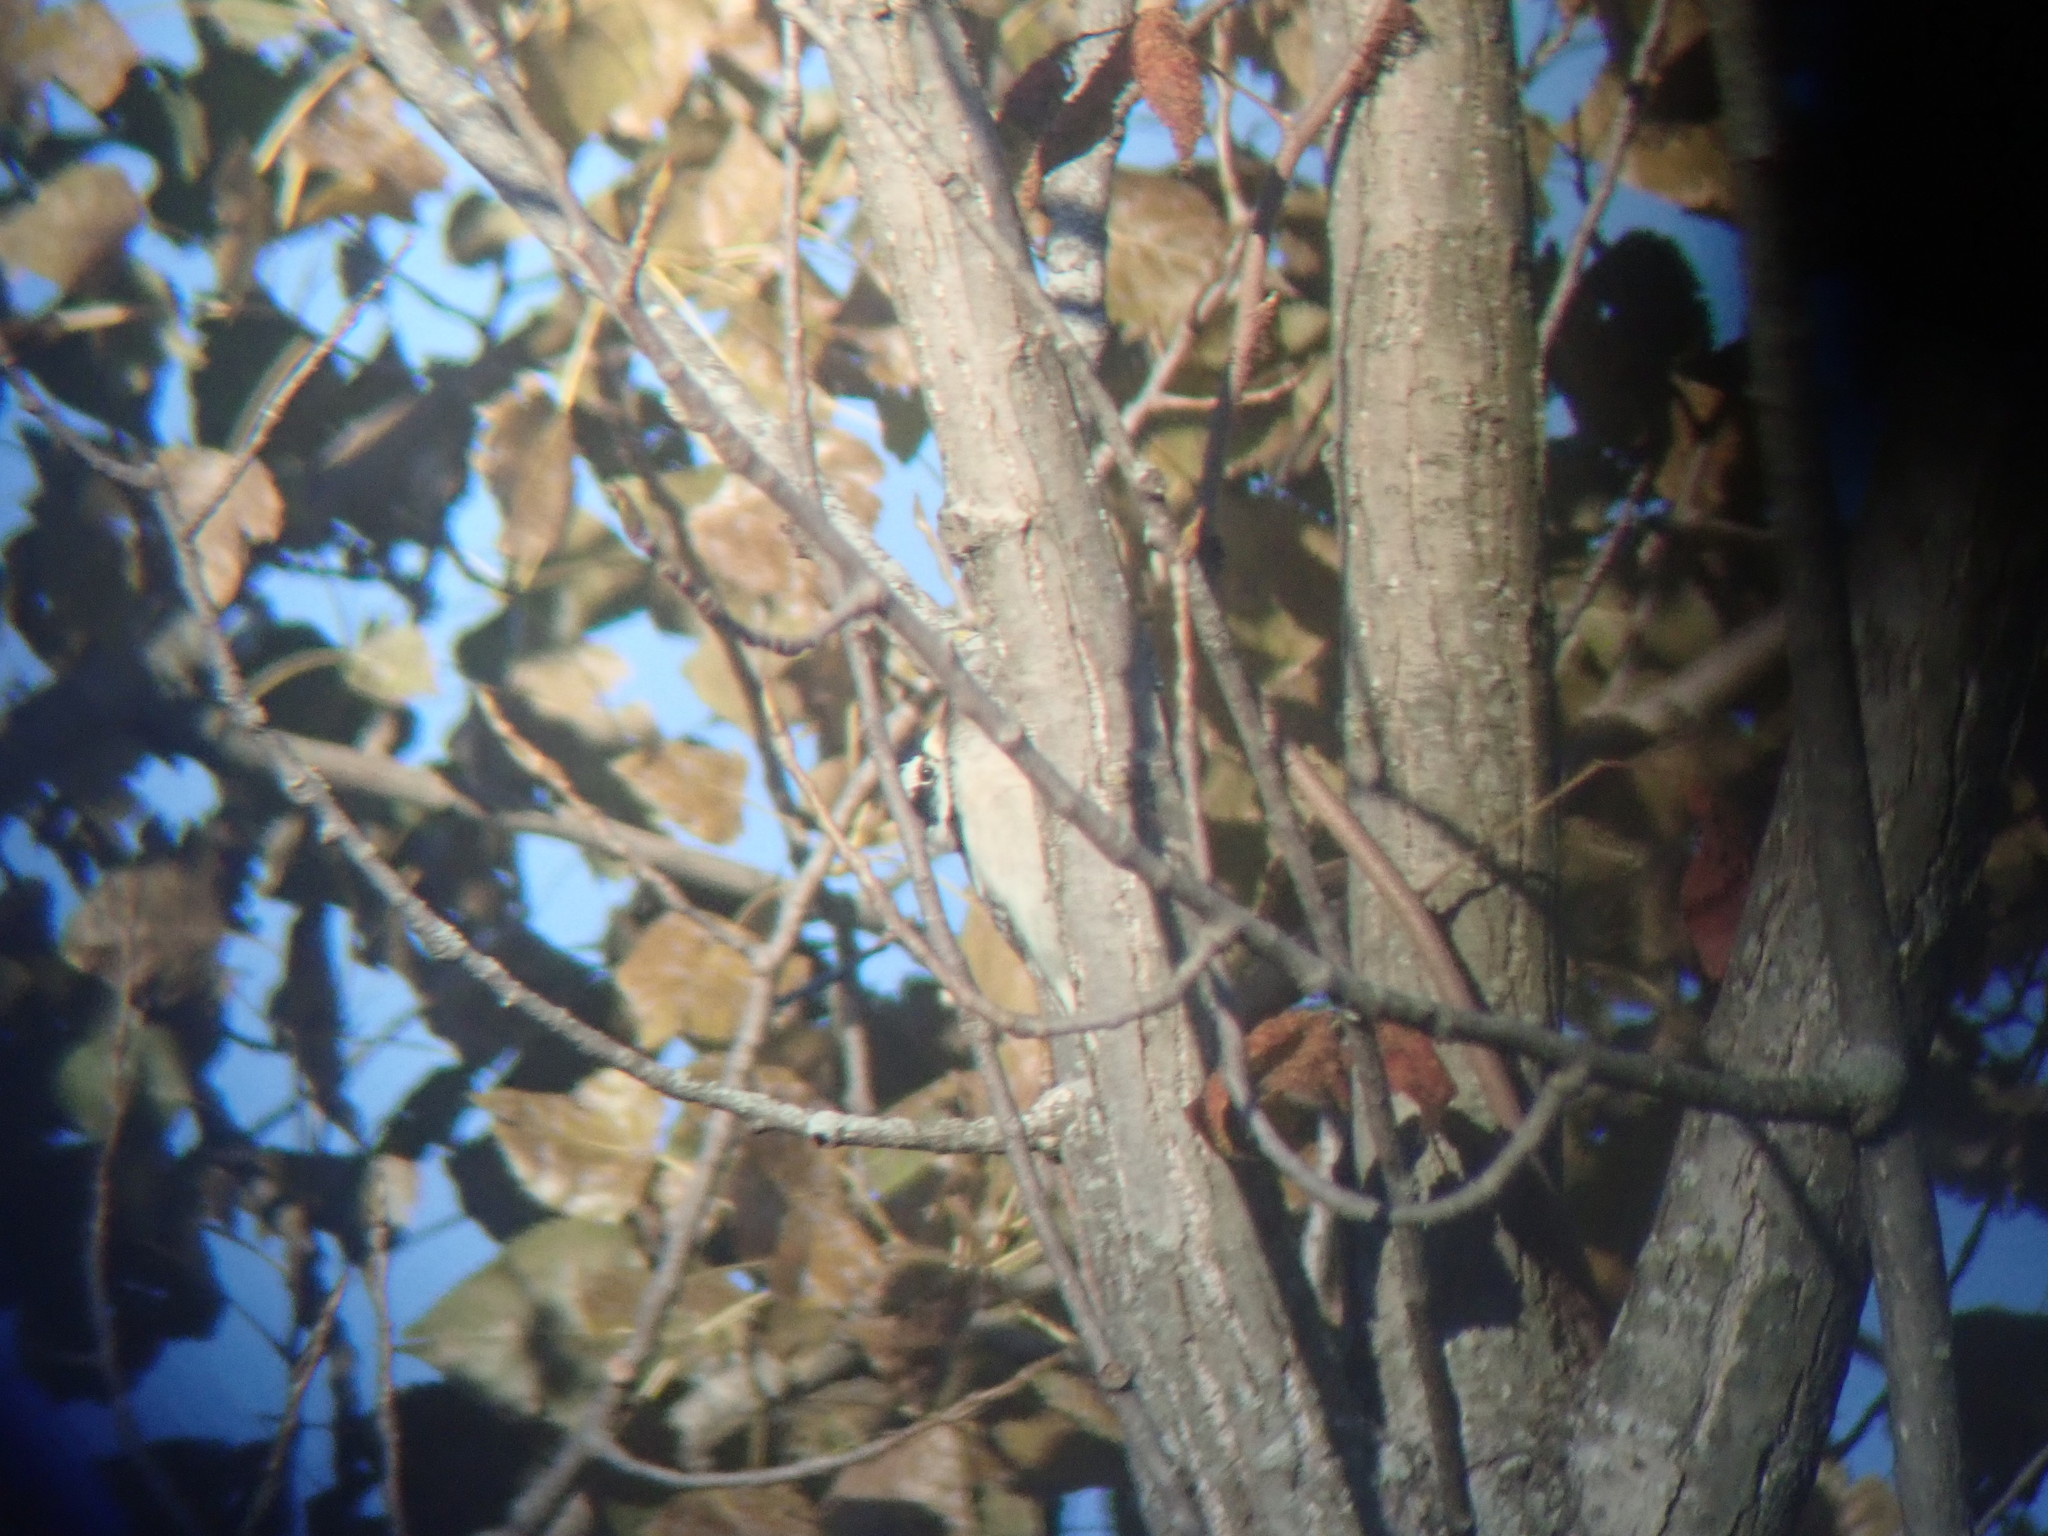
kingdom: Animalia
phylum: Chordata
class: Aves
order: Piciformes
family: Picidae
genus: Dryobates
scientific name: Dryobates pubescens
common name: Downy woodpecker
